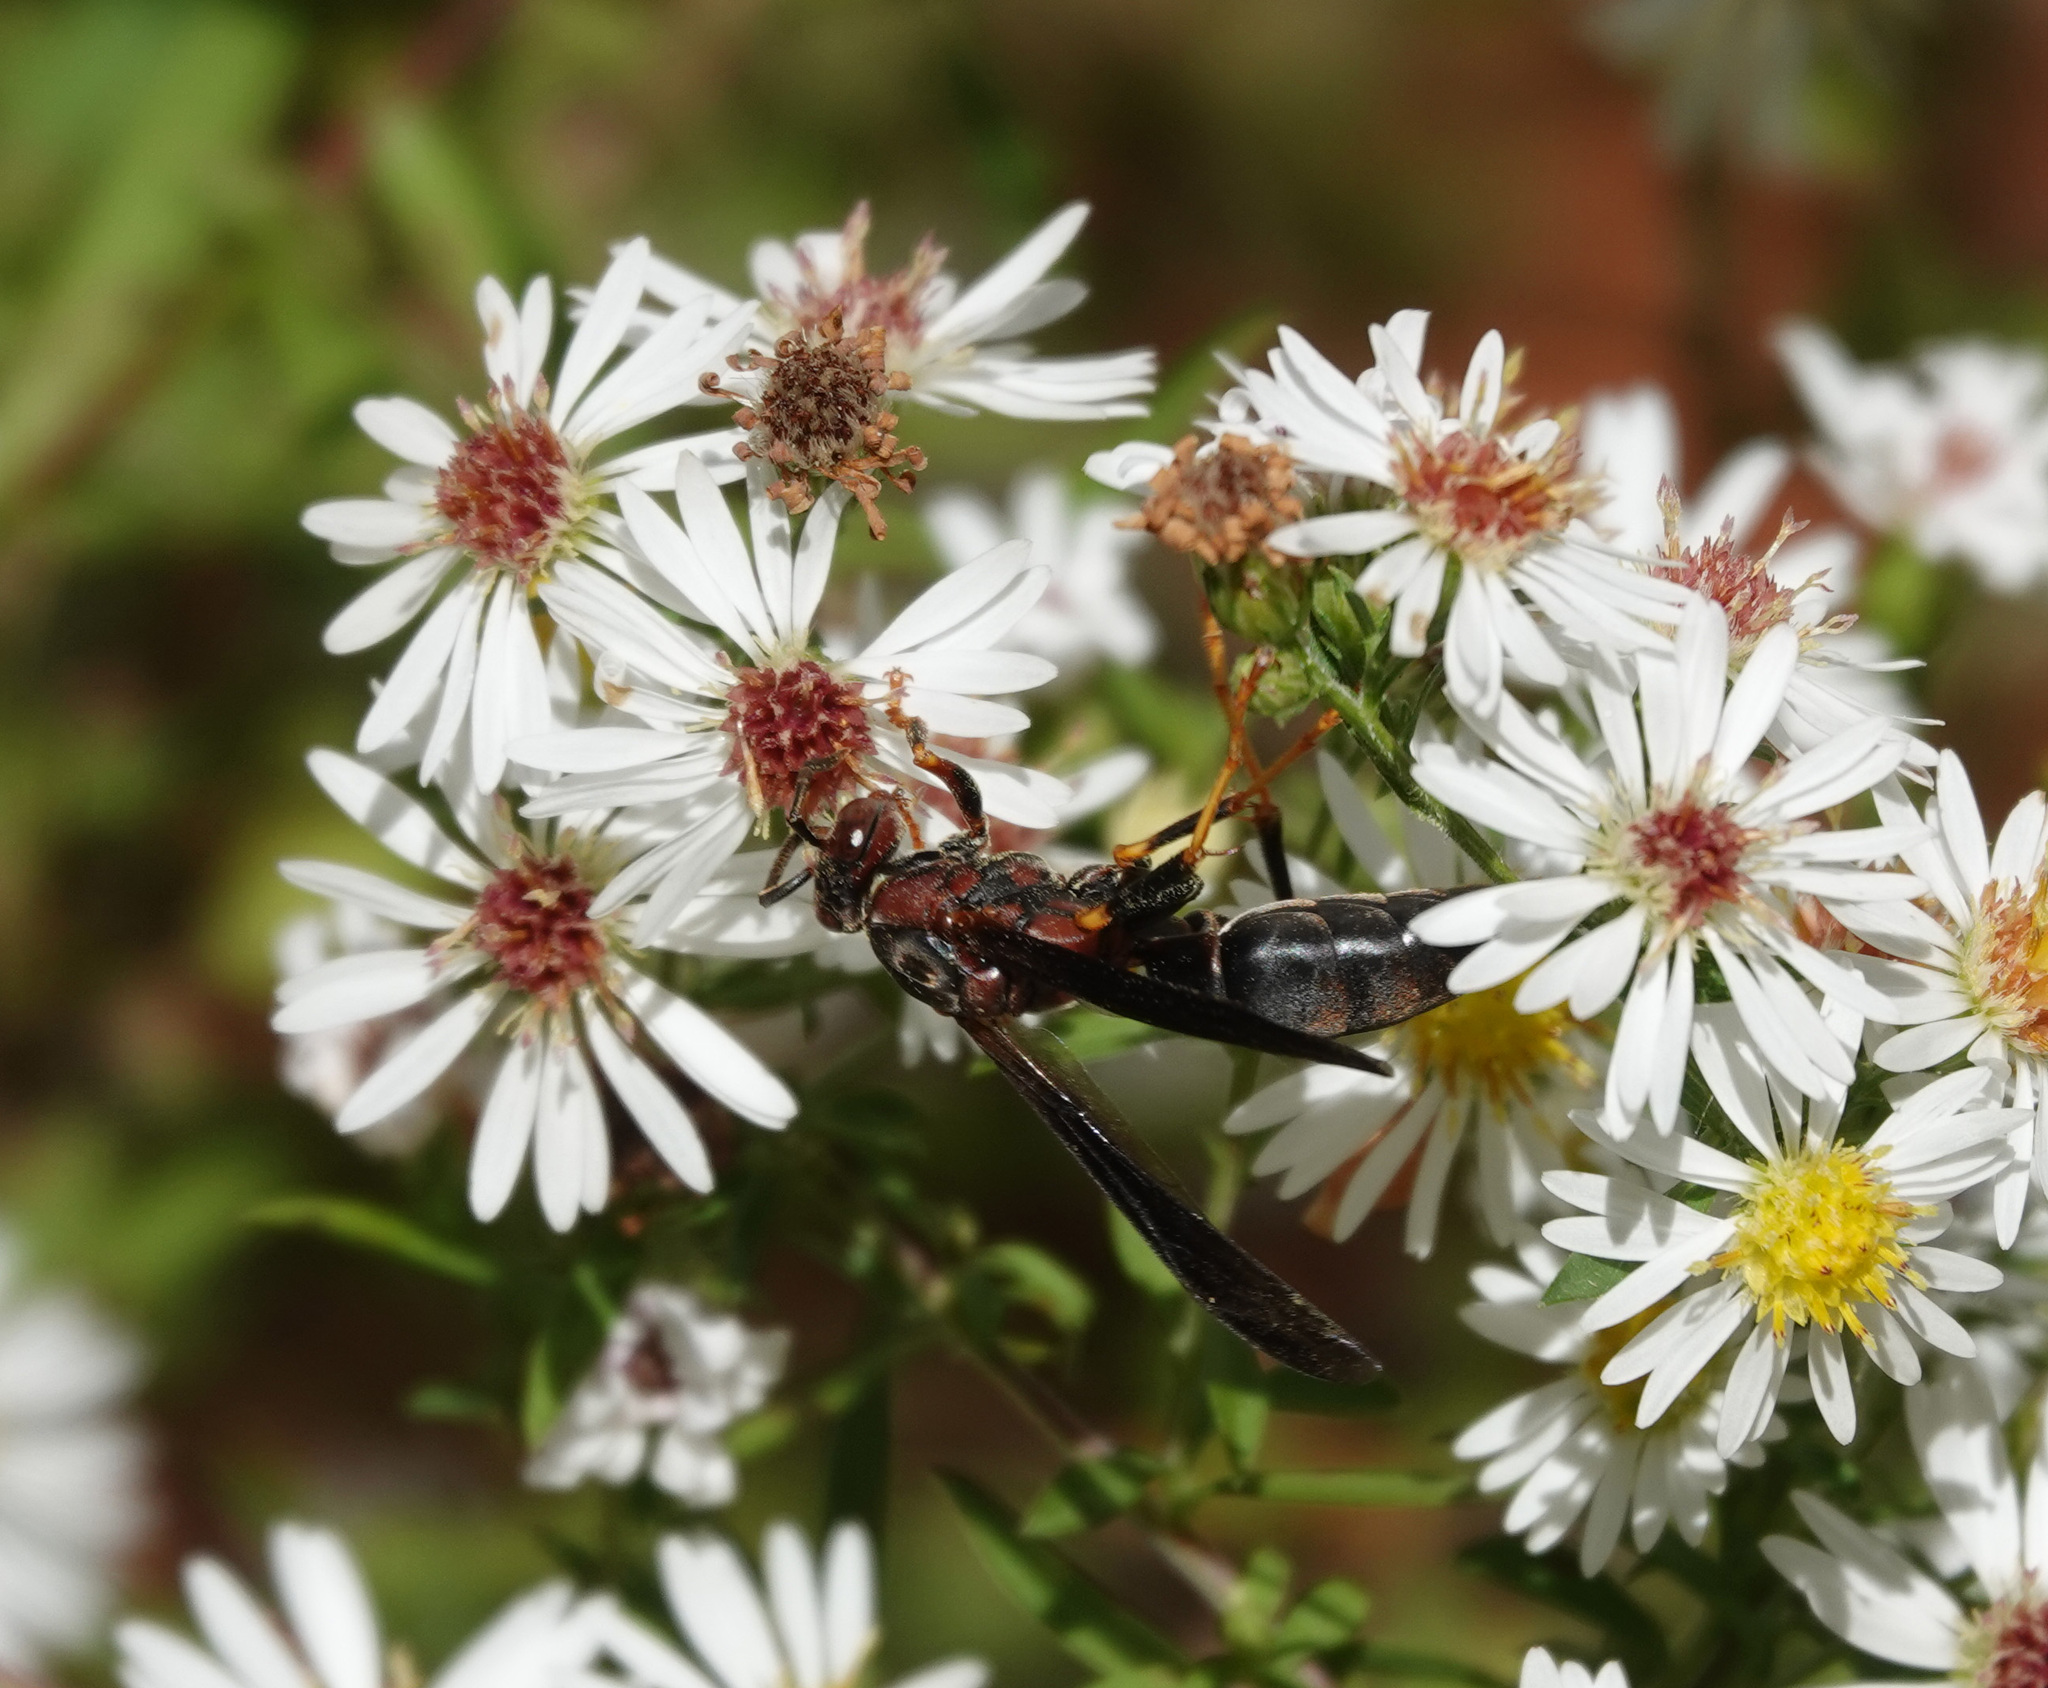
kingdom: Animalia
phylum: Arthropoda
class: Insecta
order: Hymenoptera
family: Eumenidae
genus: Polistes
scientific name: Polistes metricus
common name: Metric paper wasp
